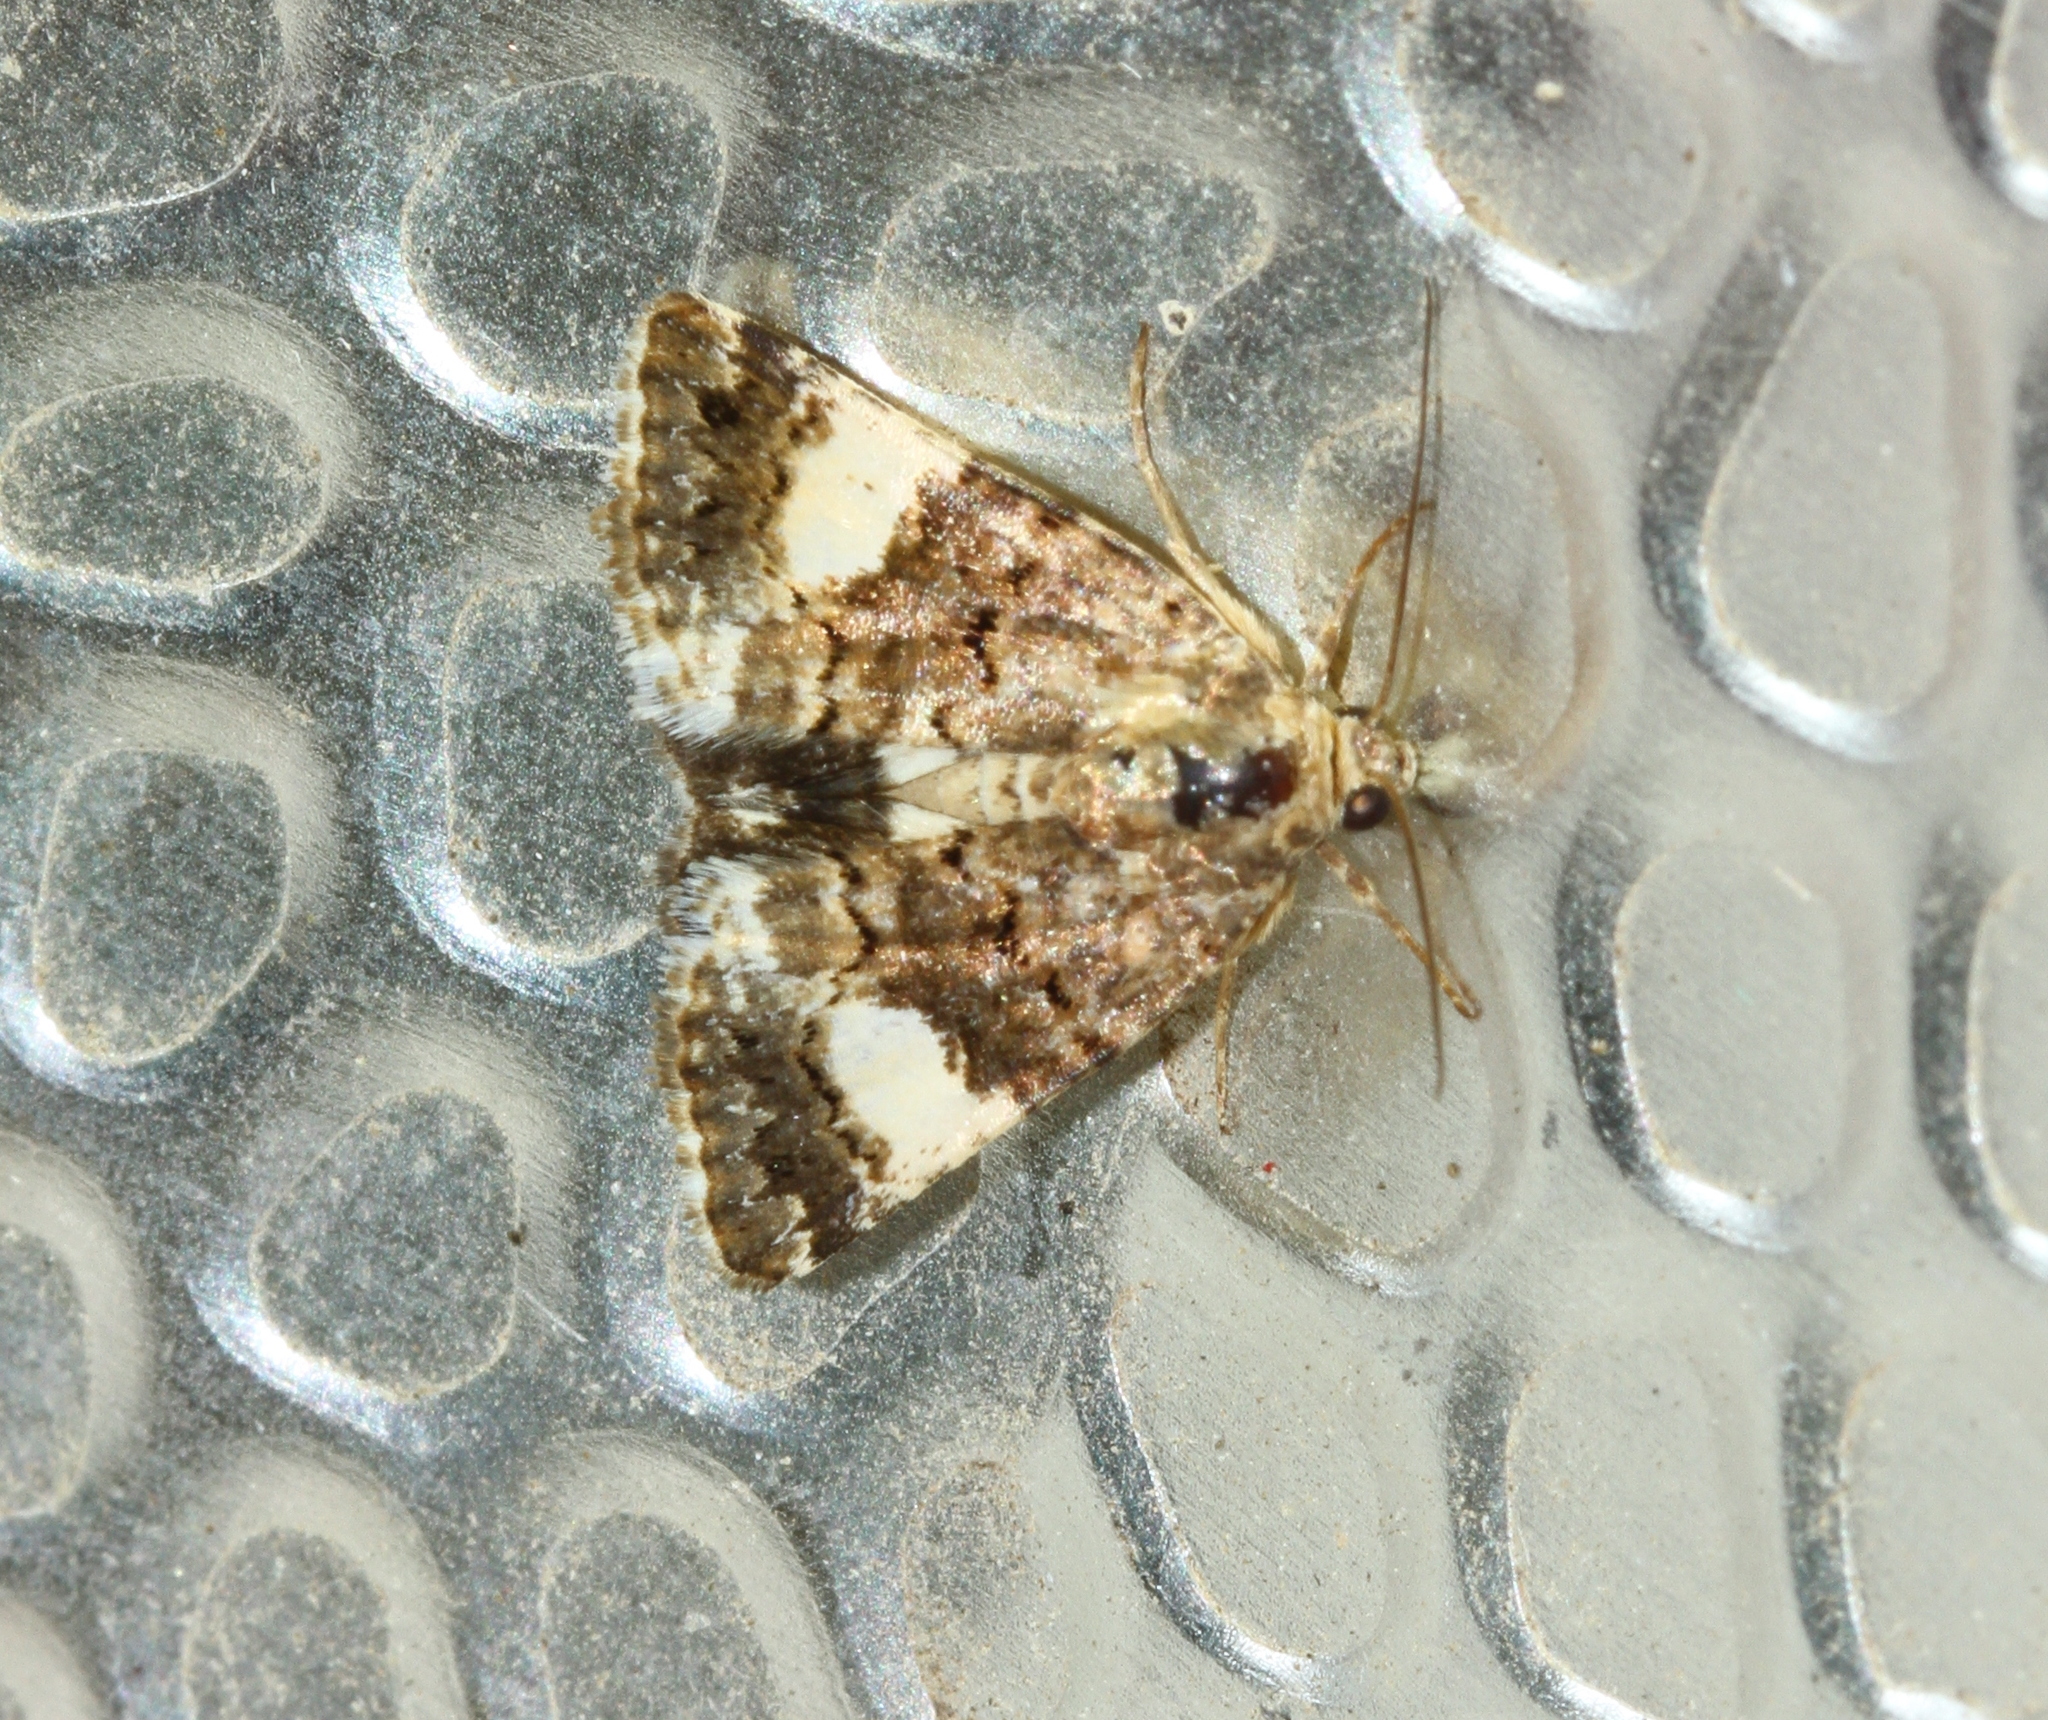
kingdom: Animalia
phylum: Arthropoda
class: Insecta
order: Lepidoptera
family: Erebidae
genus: Tyta
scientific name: Tyta luctuosa
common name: Four-spotted
